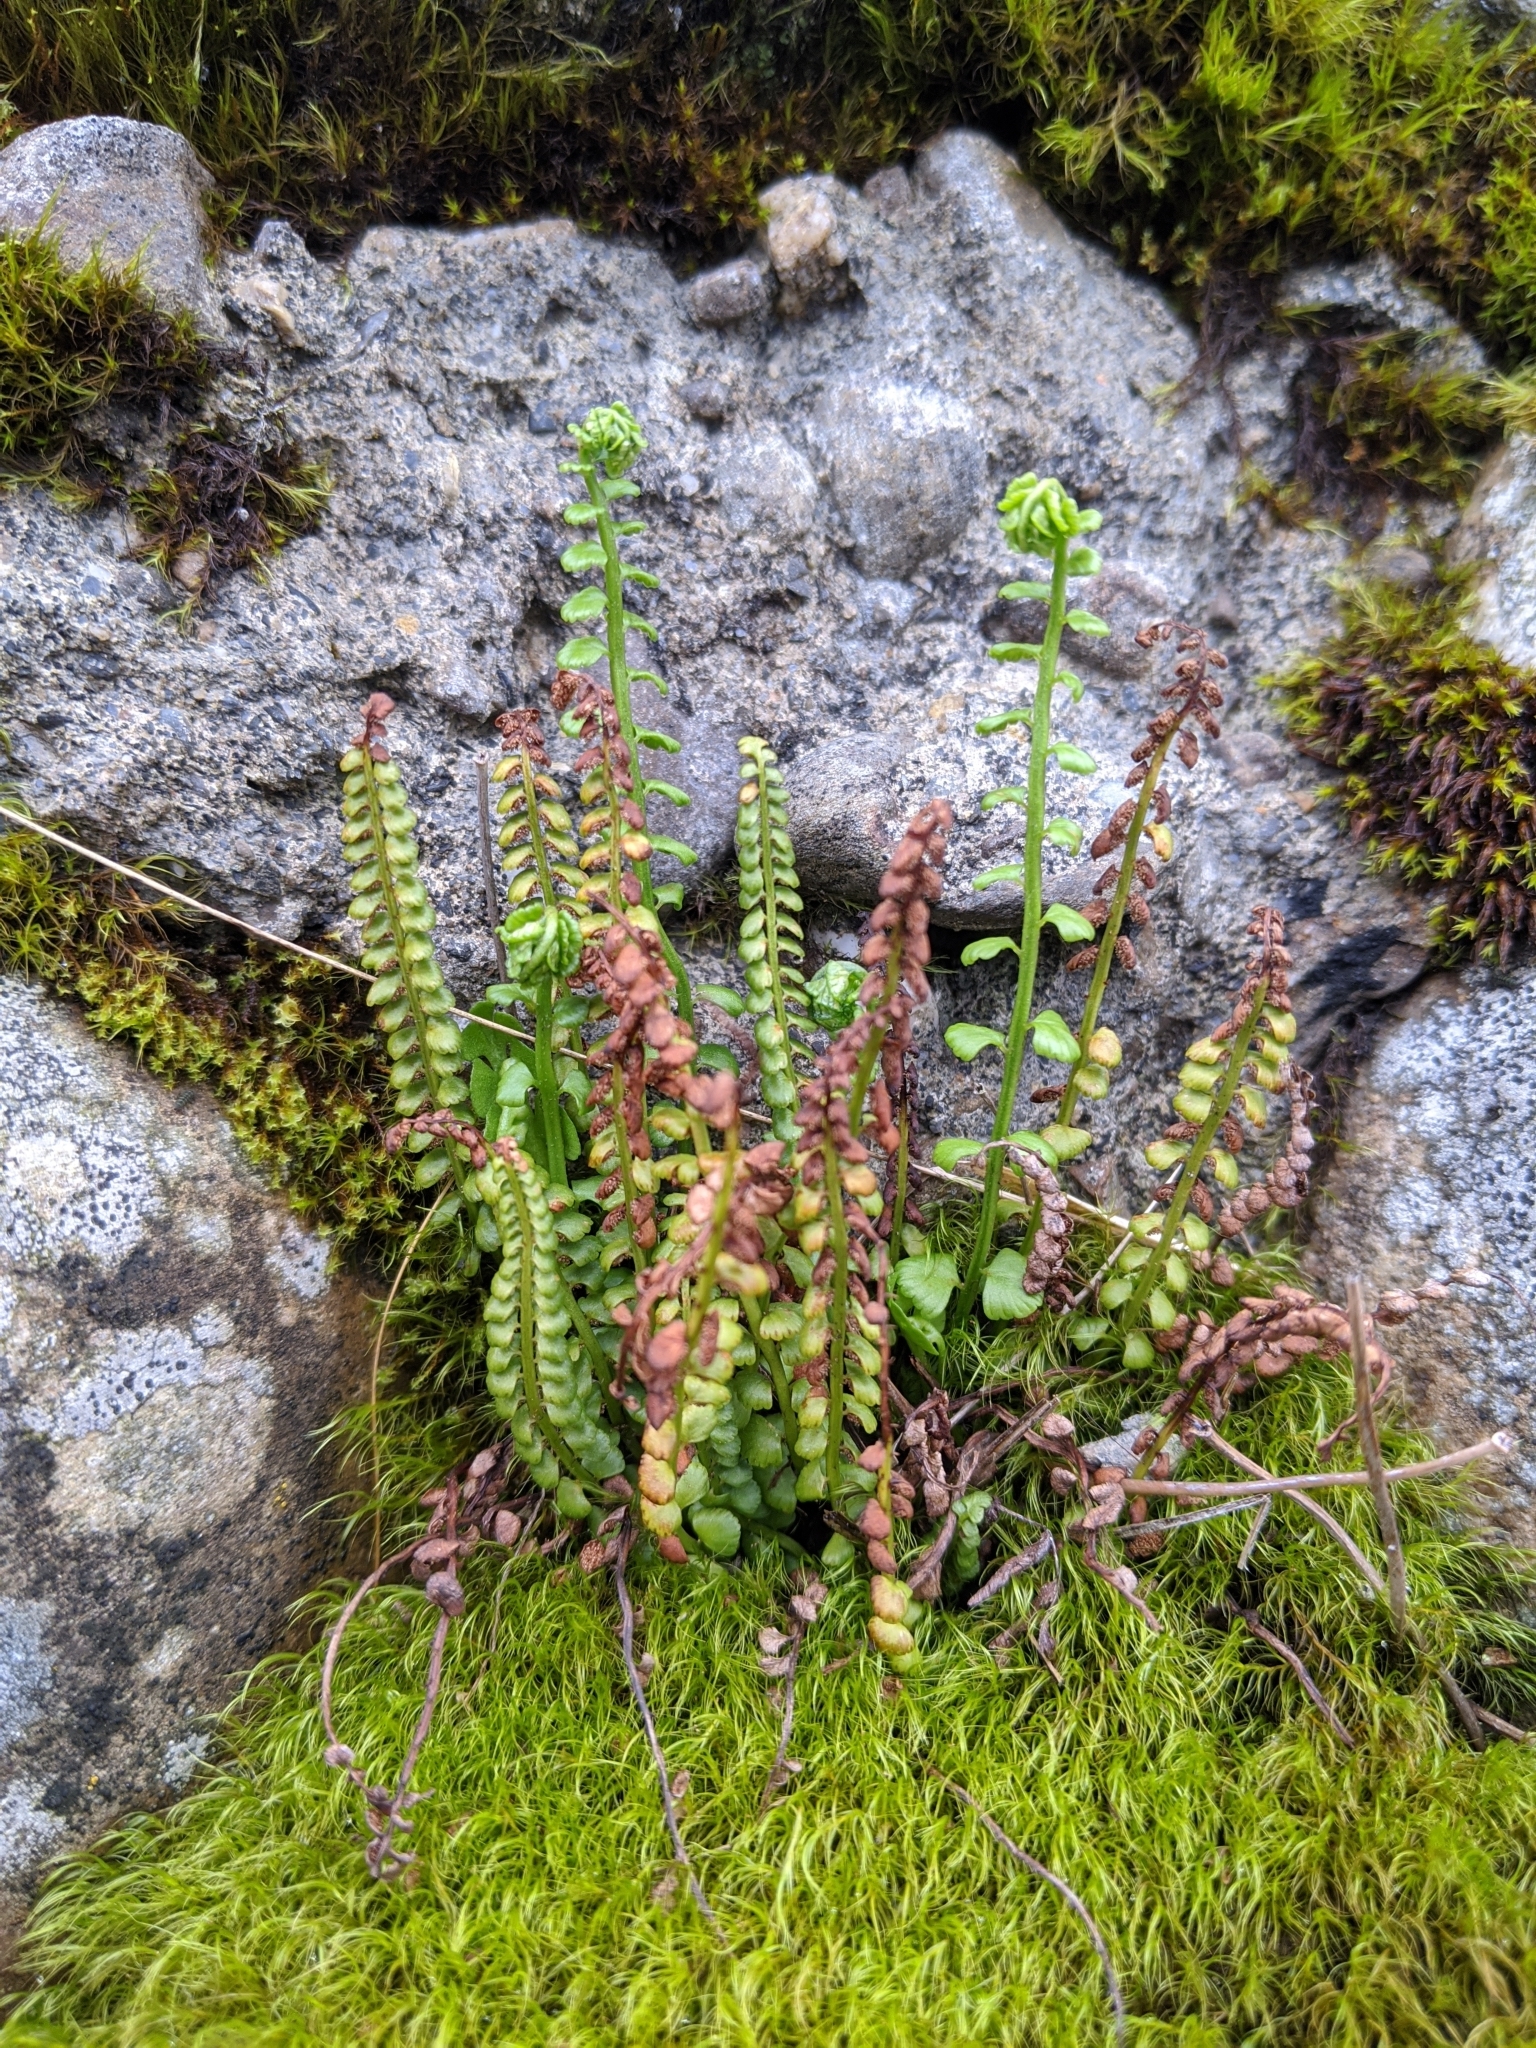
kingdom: Plantae
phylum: Tracheophyta
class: Polypodiopsida
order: Polypodiales
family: Aspleniaceae
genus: Asplenium
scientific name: Asplenium trichomanes
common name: Maidenhair spleenwort
